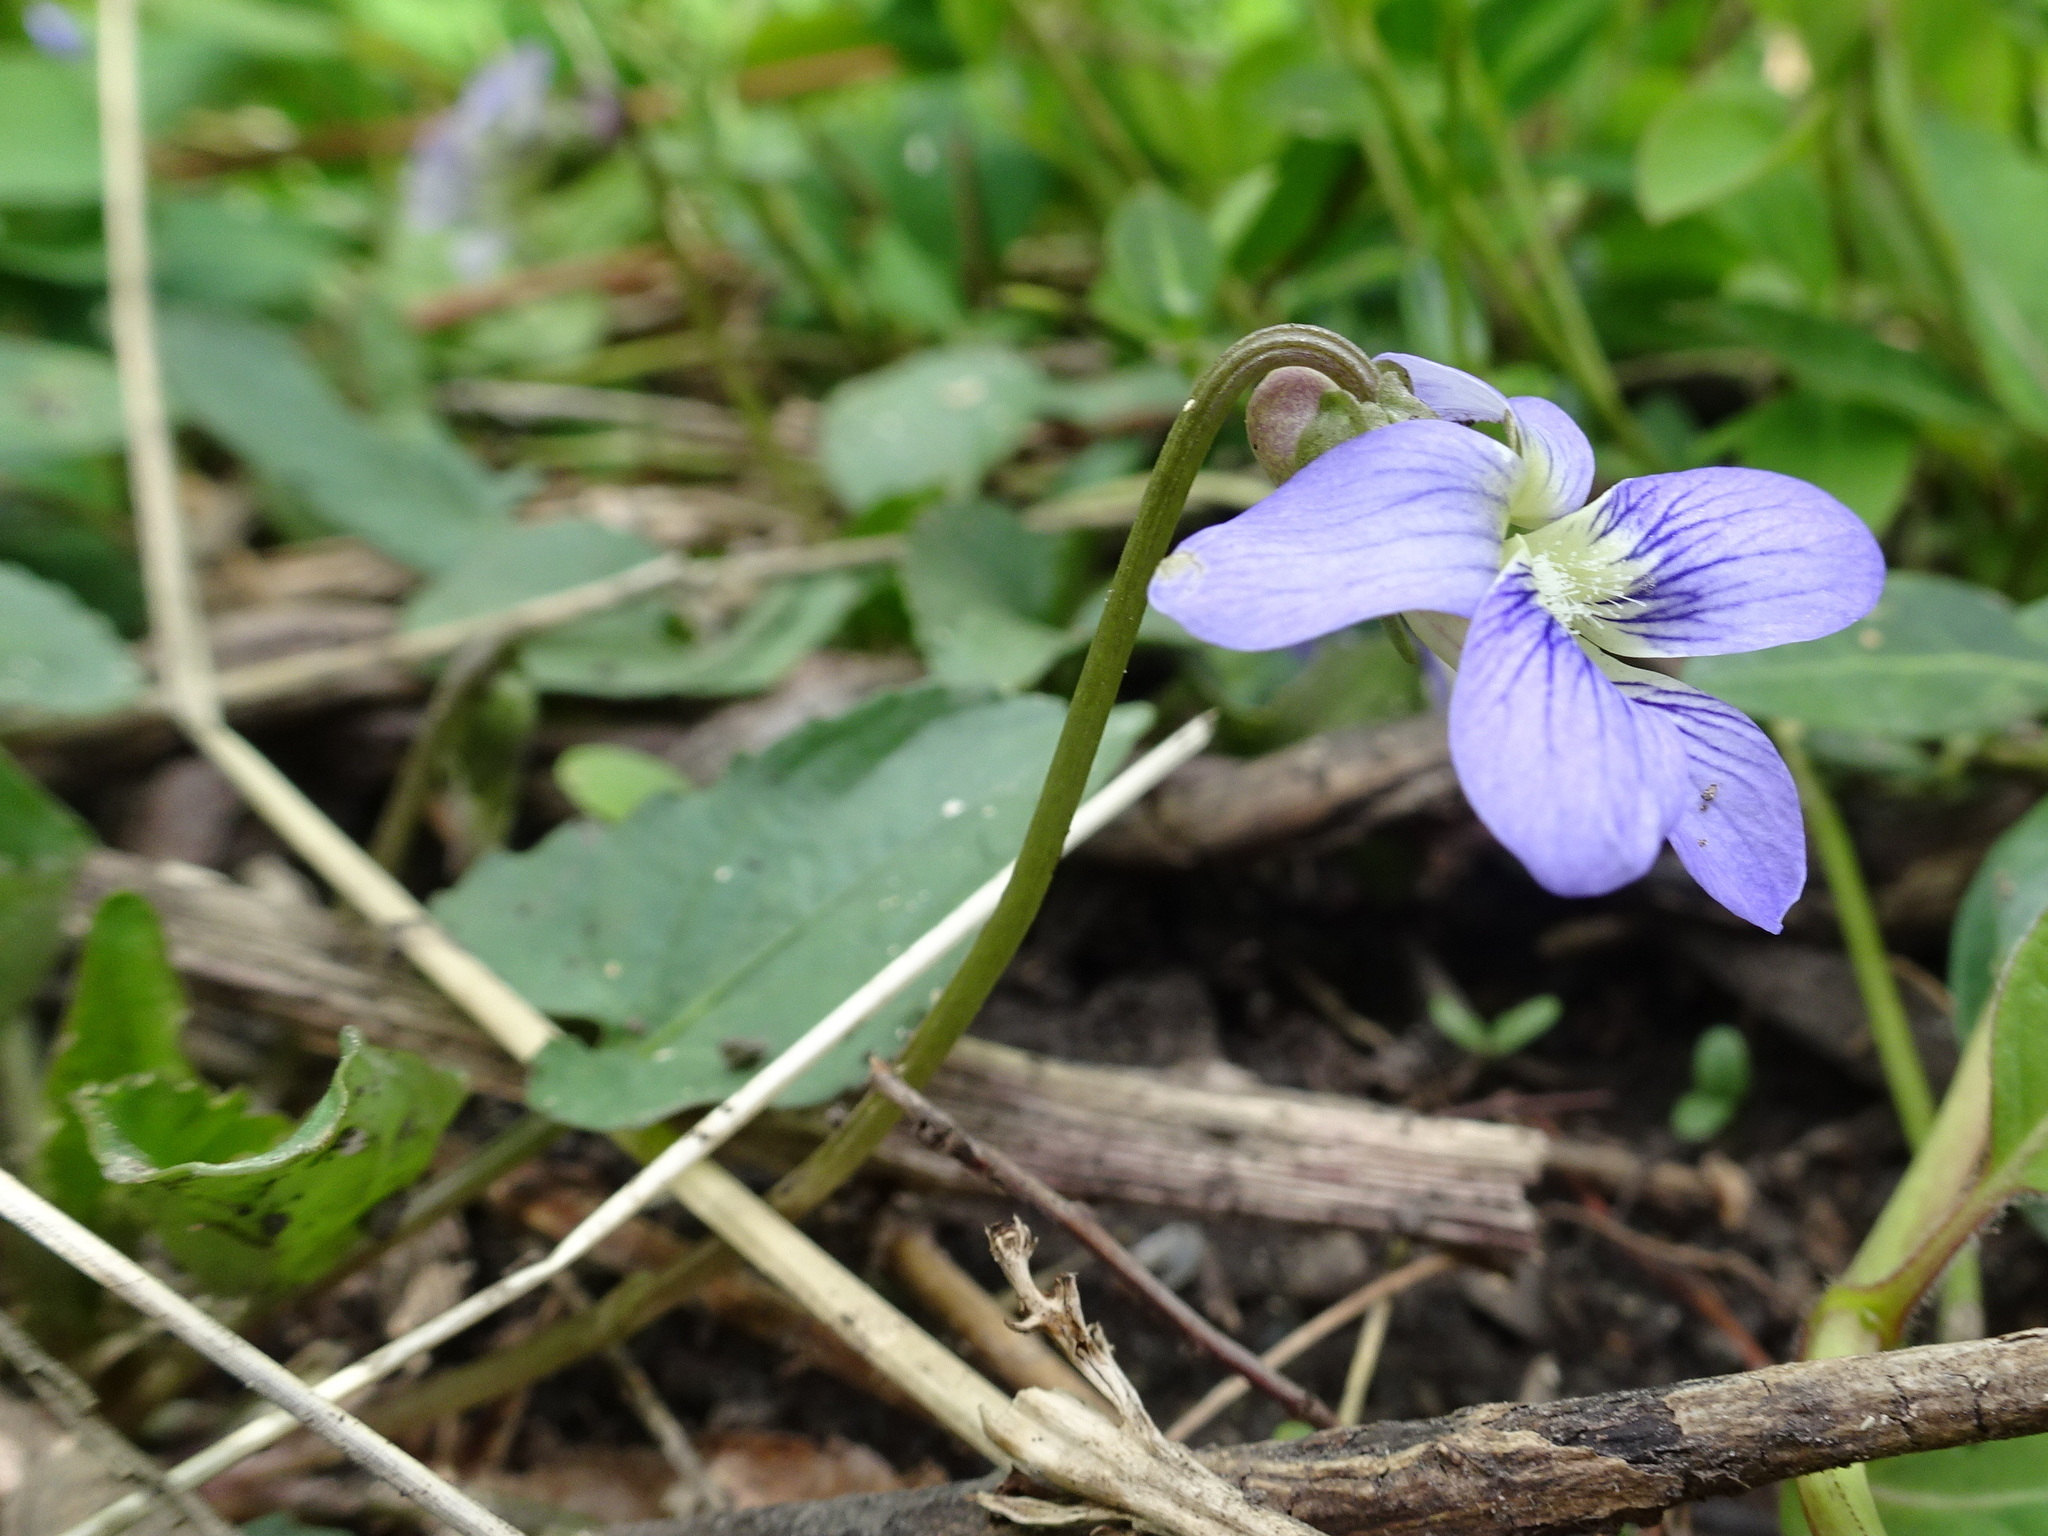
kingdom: Plantae
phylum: Tracheophyta
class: Magnoliopsida
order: Malpighiales
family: Violaceae
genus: Viola
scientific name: Viola sororia
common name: Dooryard violet
